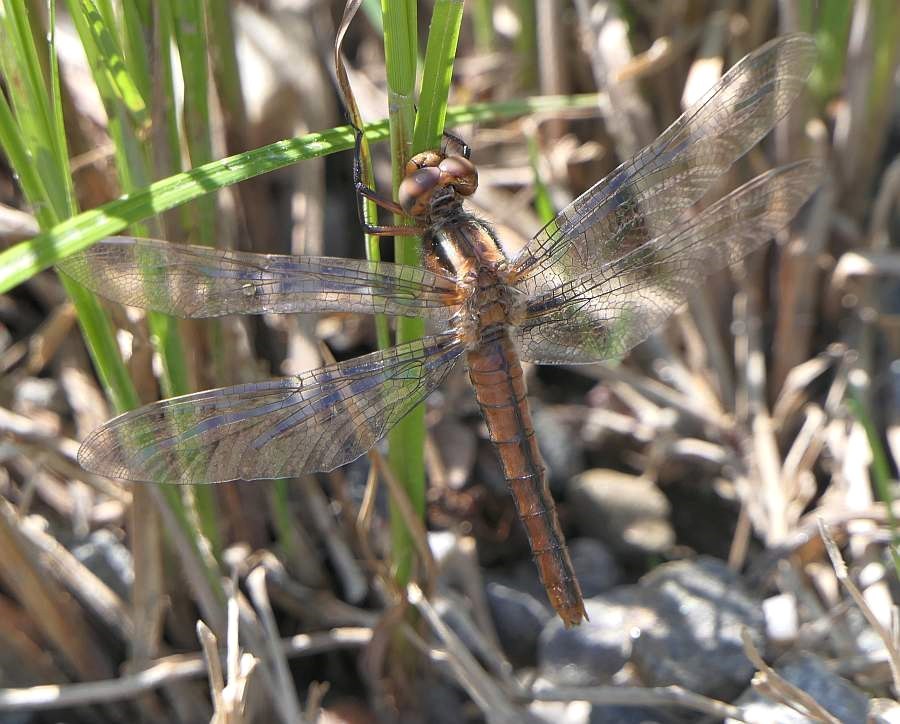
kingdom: Animalia
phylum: Arthropoda
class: Insecta
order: Odonata
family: Libellulidae
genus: Ladona
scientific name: Ladona julia
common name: Chalk-fronted corporal
